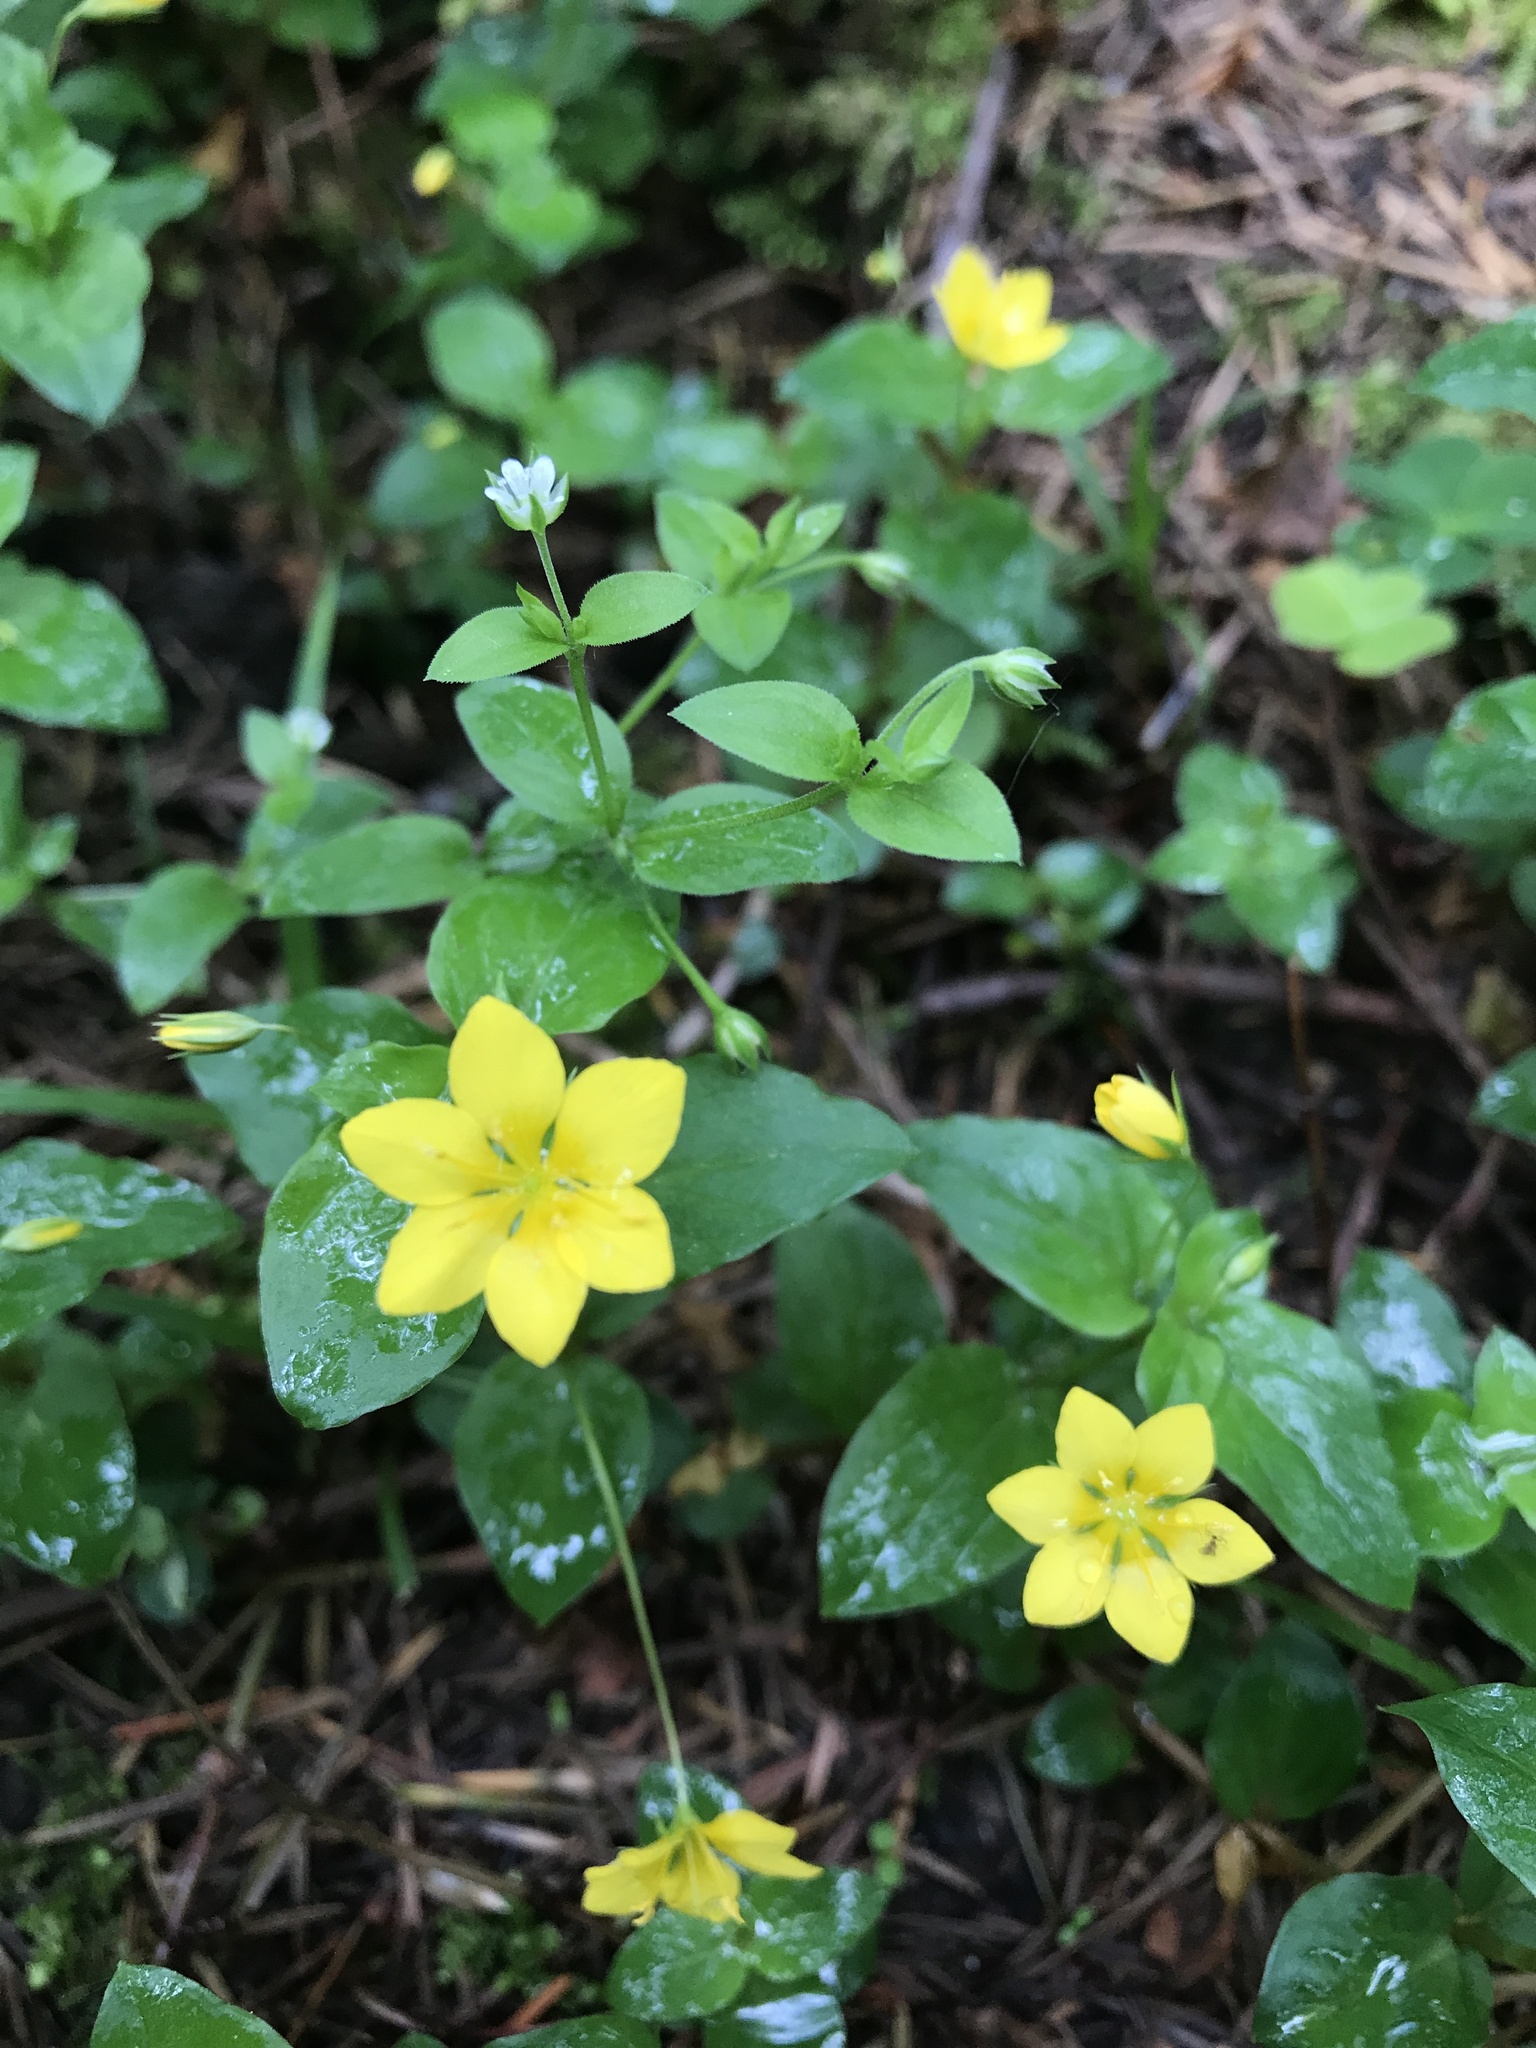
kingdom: Plantae
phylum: Tracheophyta
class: Magnoliopsida
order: Ericales
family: Primulaceae
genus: Lysimachia
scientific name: Lysimachia nemorum
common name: Yellow pimpernel
